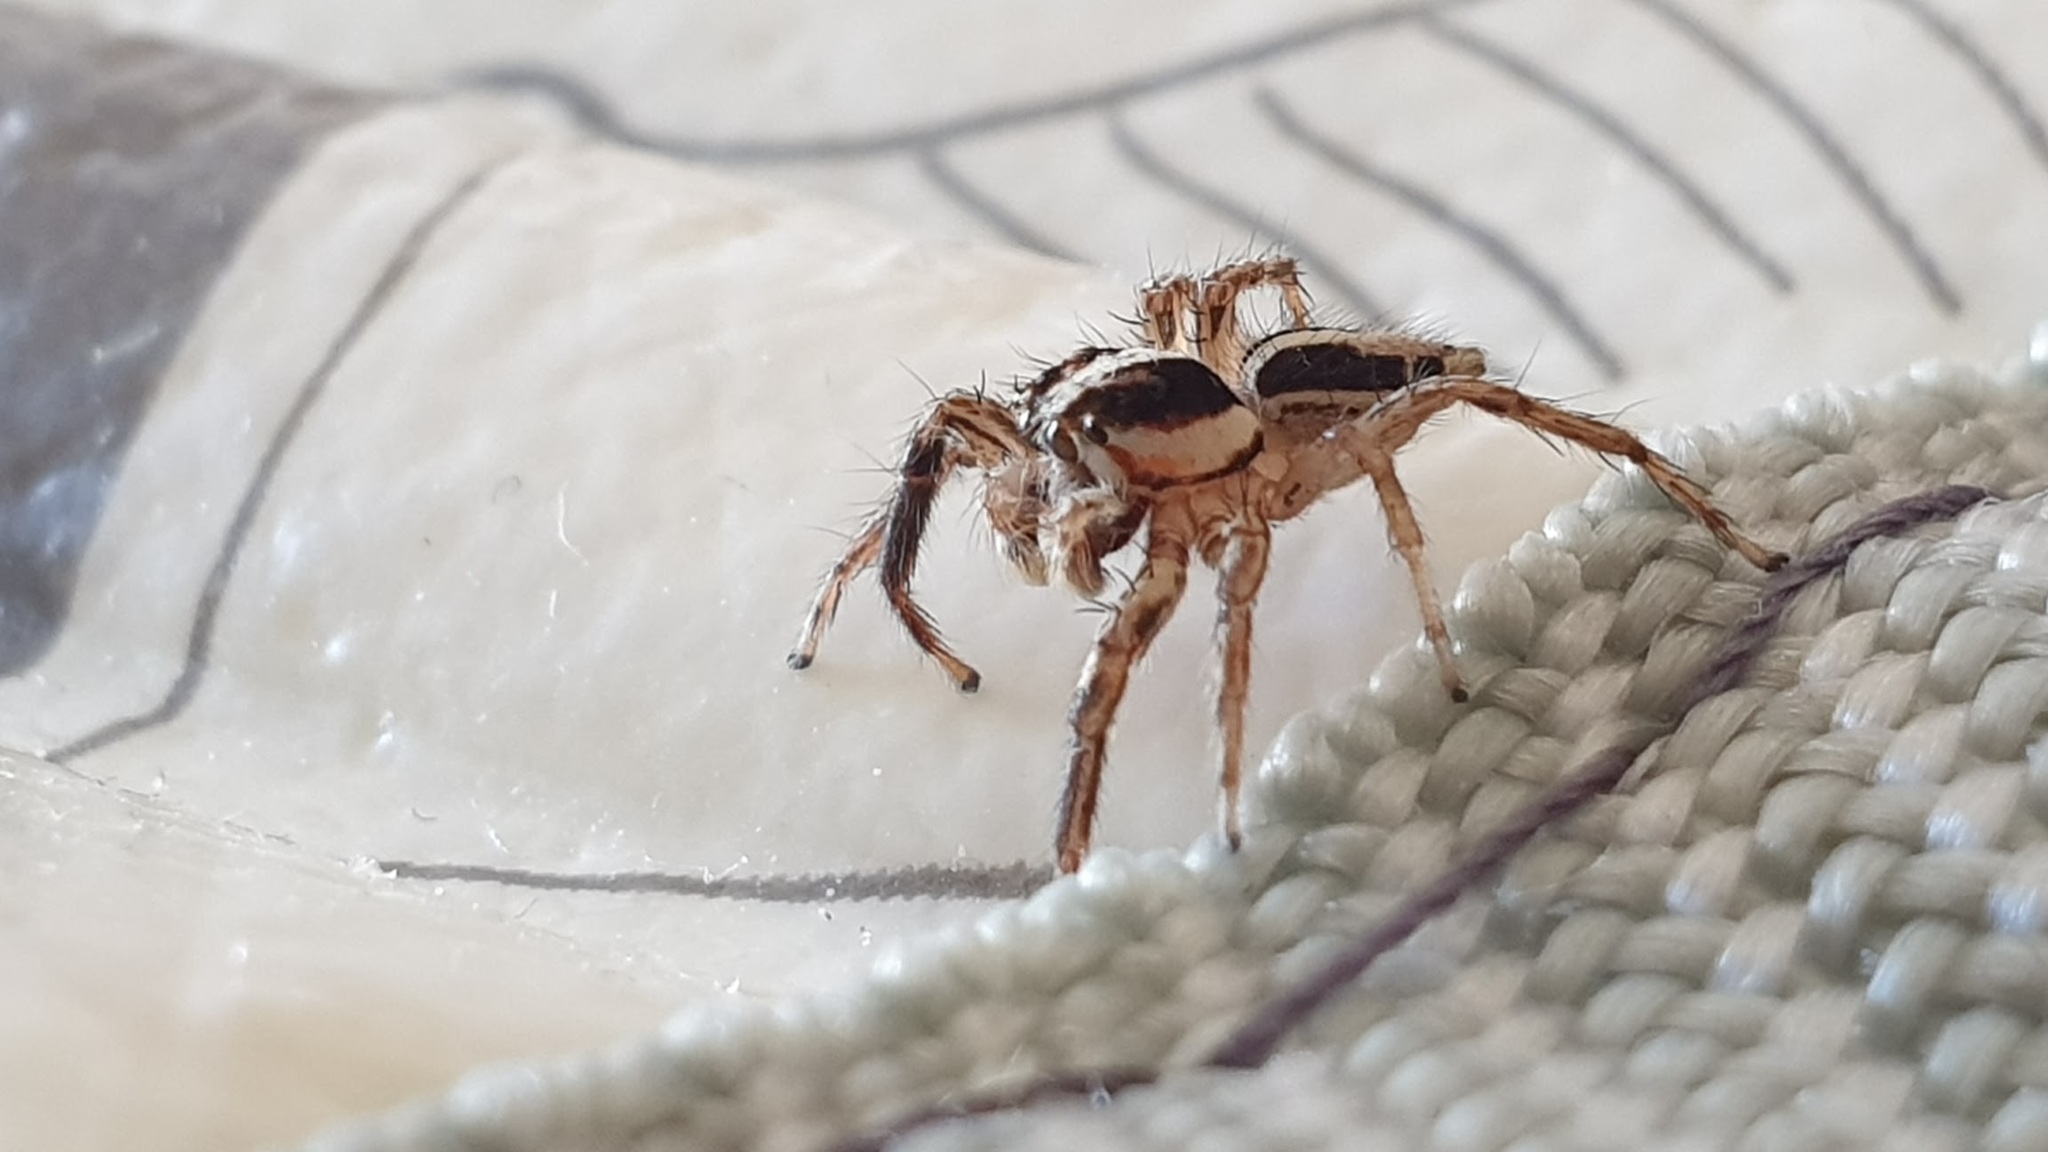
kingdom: Animalia
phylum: Arthropoda
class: Arachnida
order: Araneae
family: Salticidae
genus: Plexippus
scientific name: Plexippus paykulli
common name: Pantropical jumper
